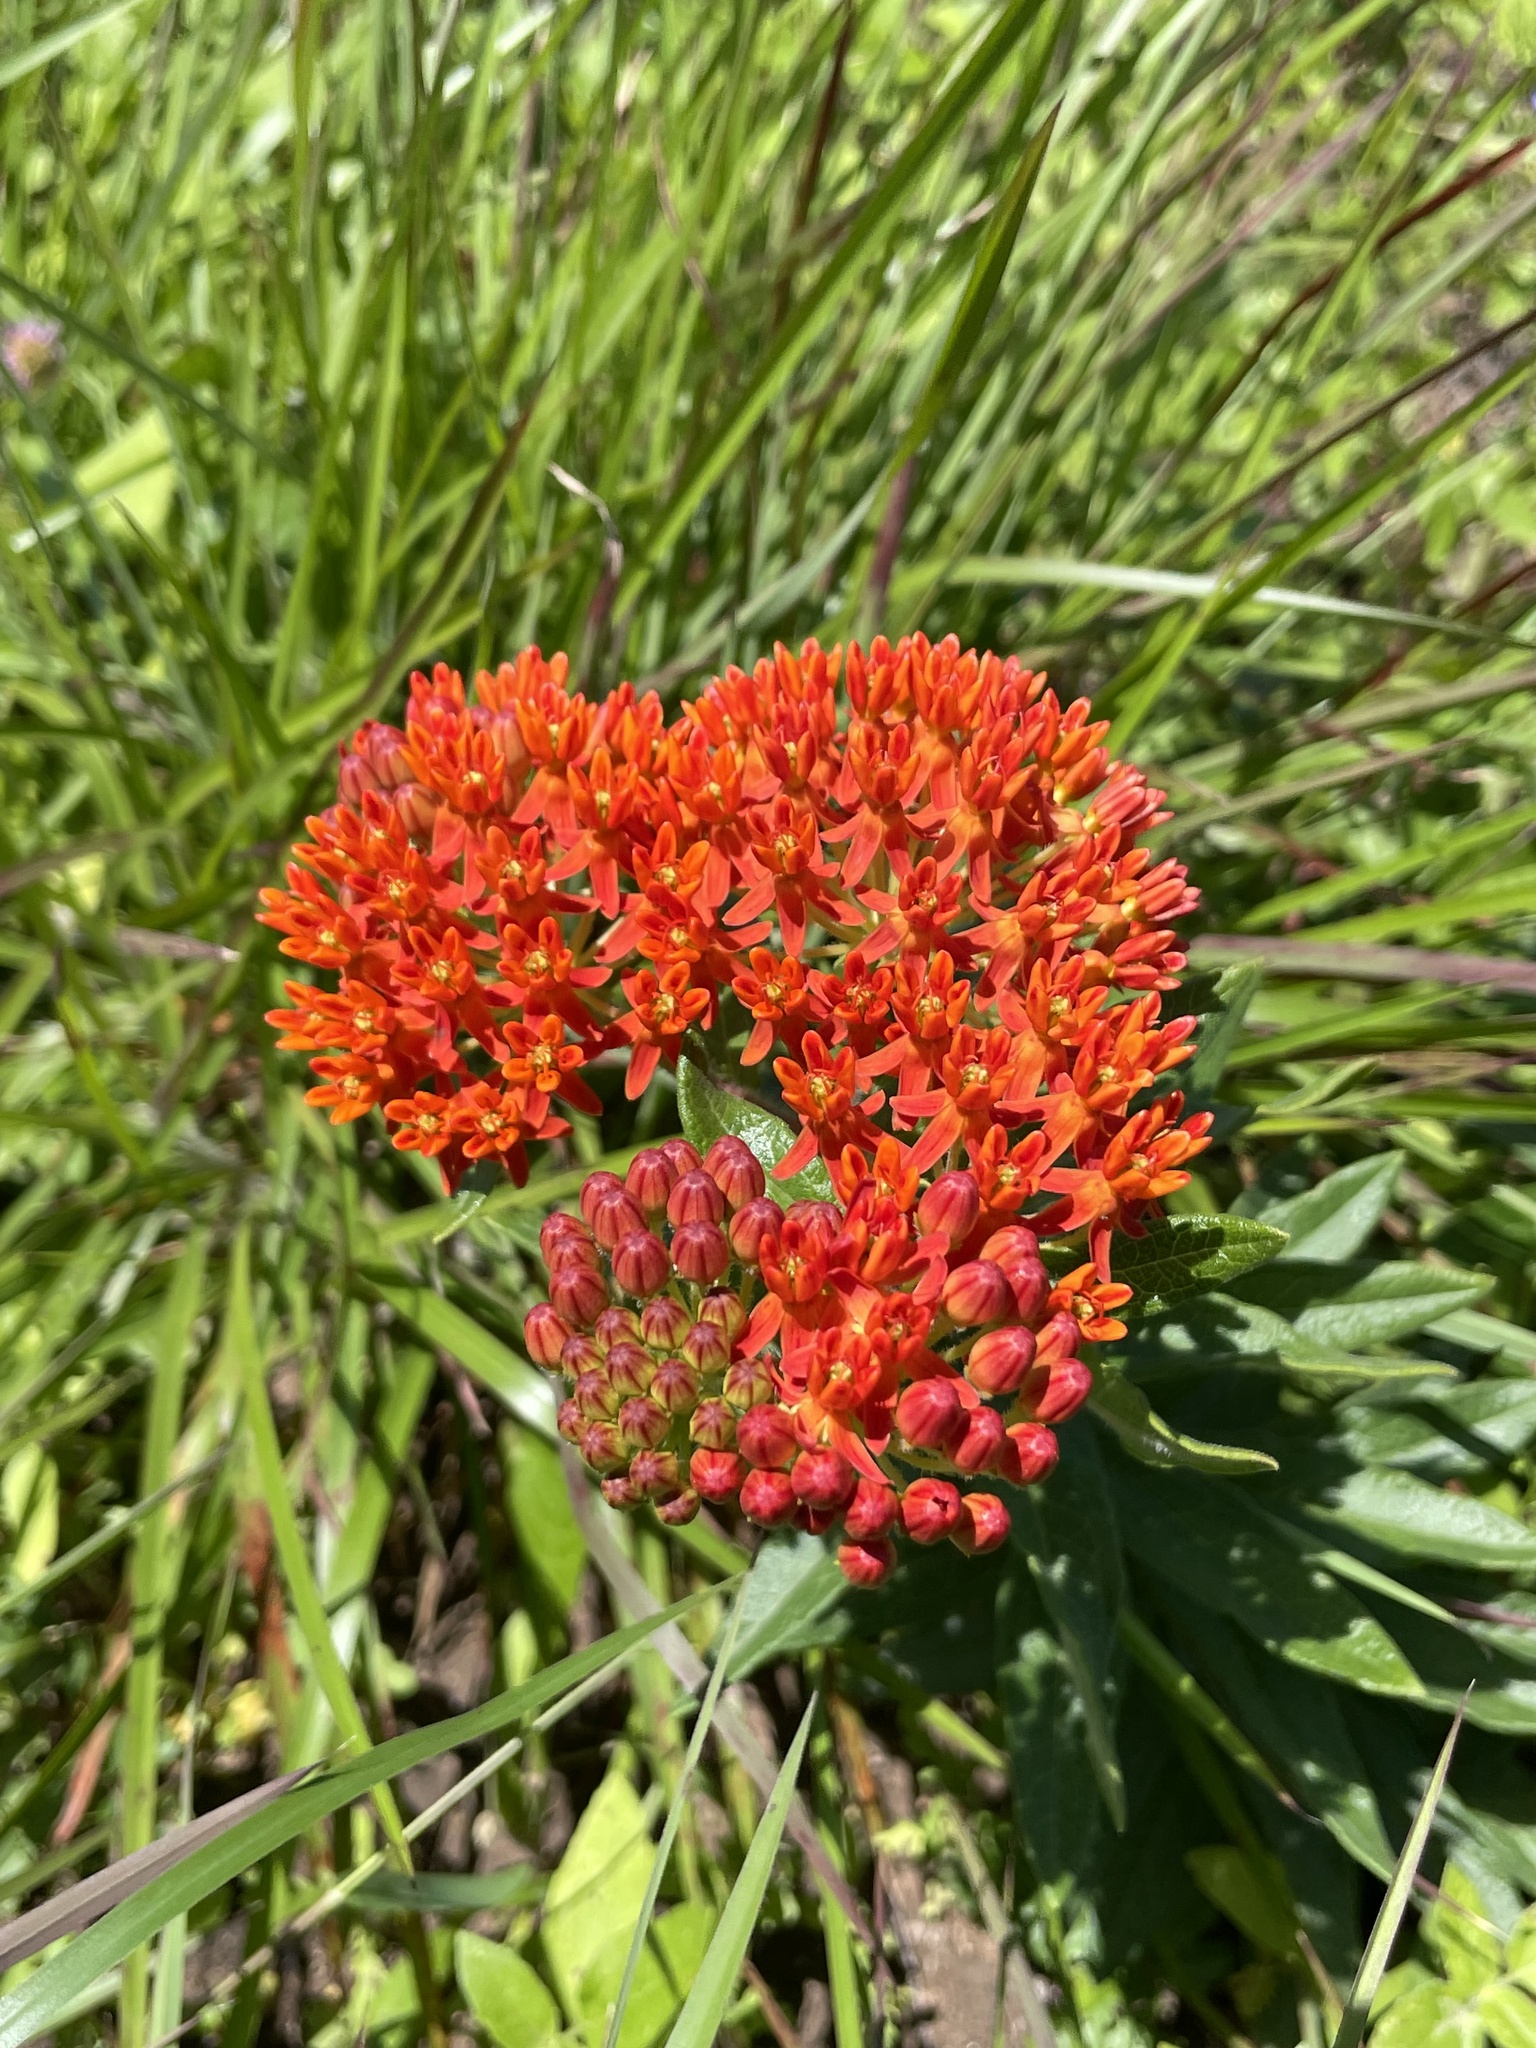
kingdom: Plantae
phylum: Tracheophyta
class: Magnoliopsida
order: Gentianales
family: Apocynaceae
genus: Asclepias
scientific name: Asclepias tuberosa
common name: Butterfly milkweed
